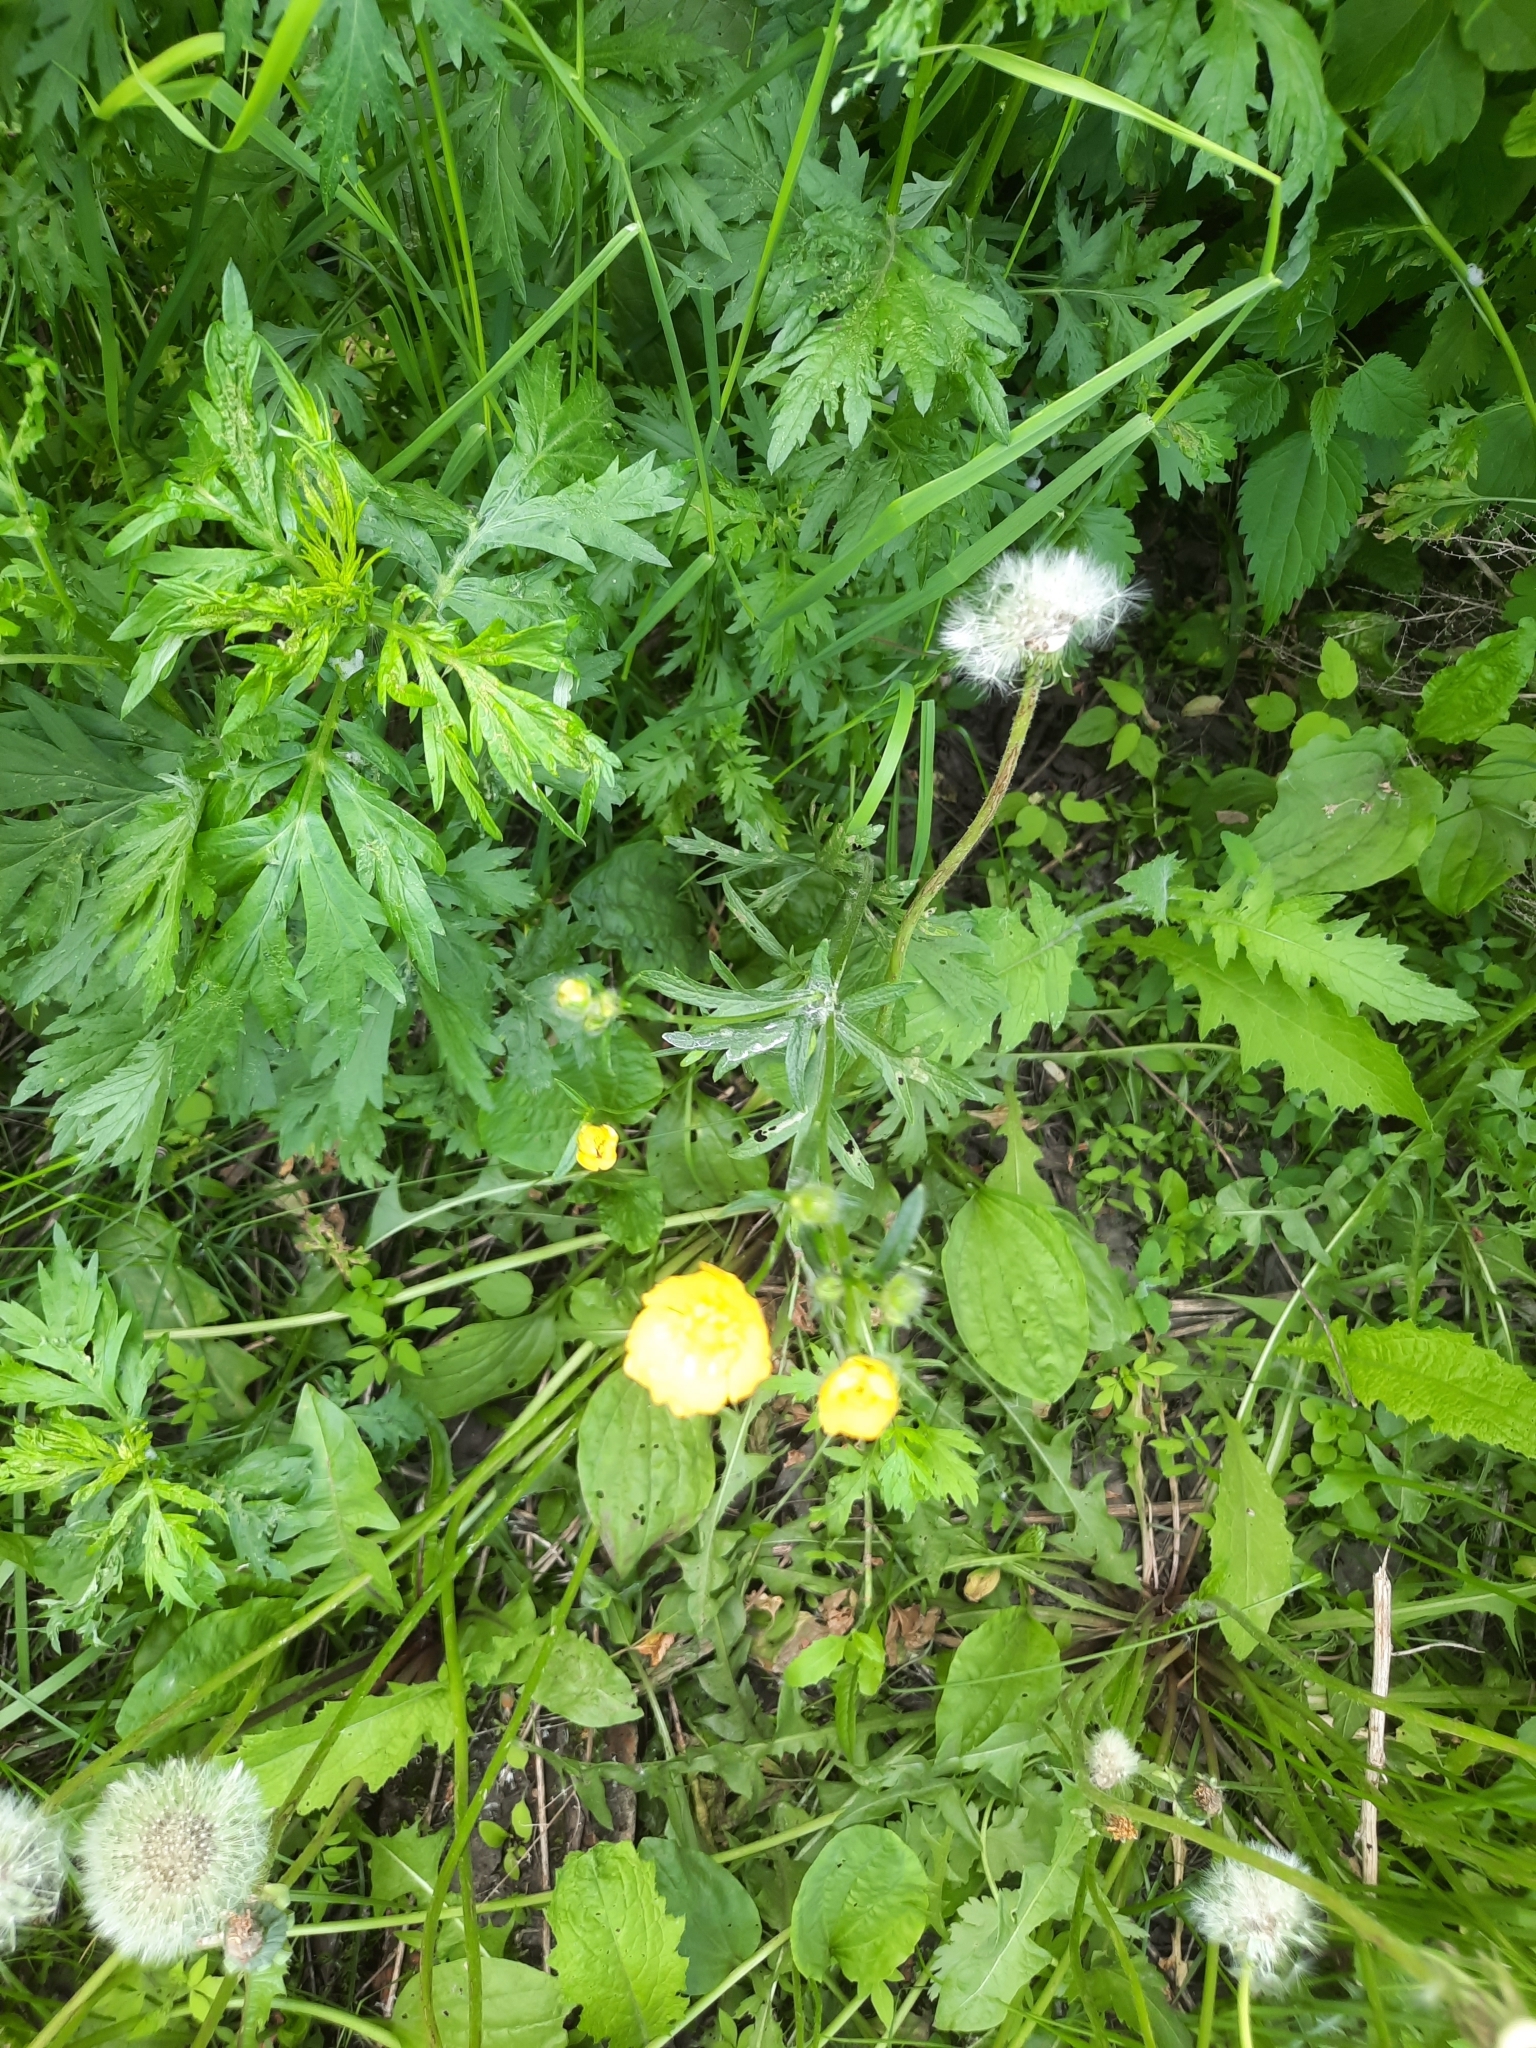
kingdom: Plantae
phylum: Tracheophyta
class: Magnoliopsida
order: Ranunculales
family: Ranunculaceae
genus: Ranunculus
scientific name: Ranunculus polyanthemos
